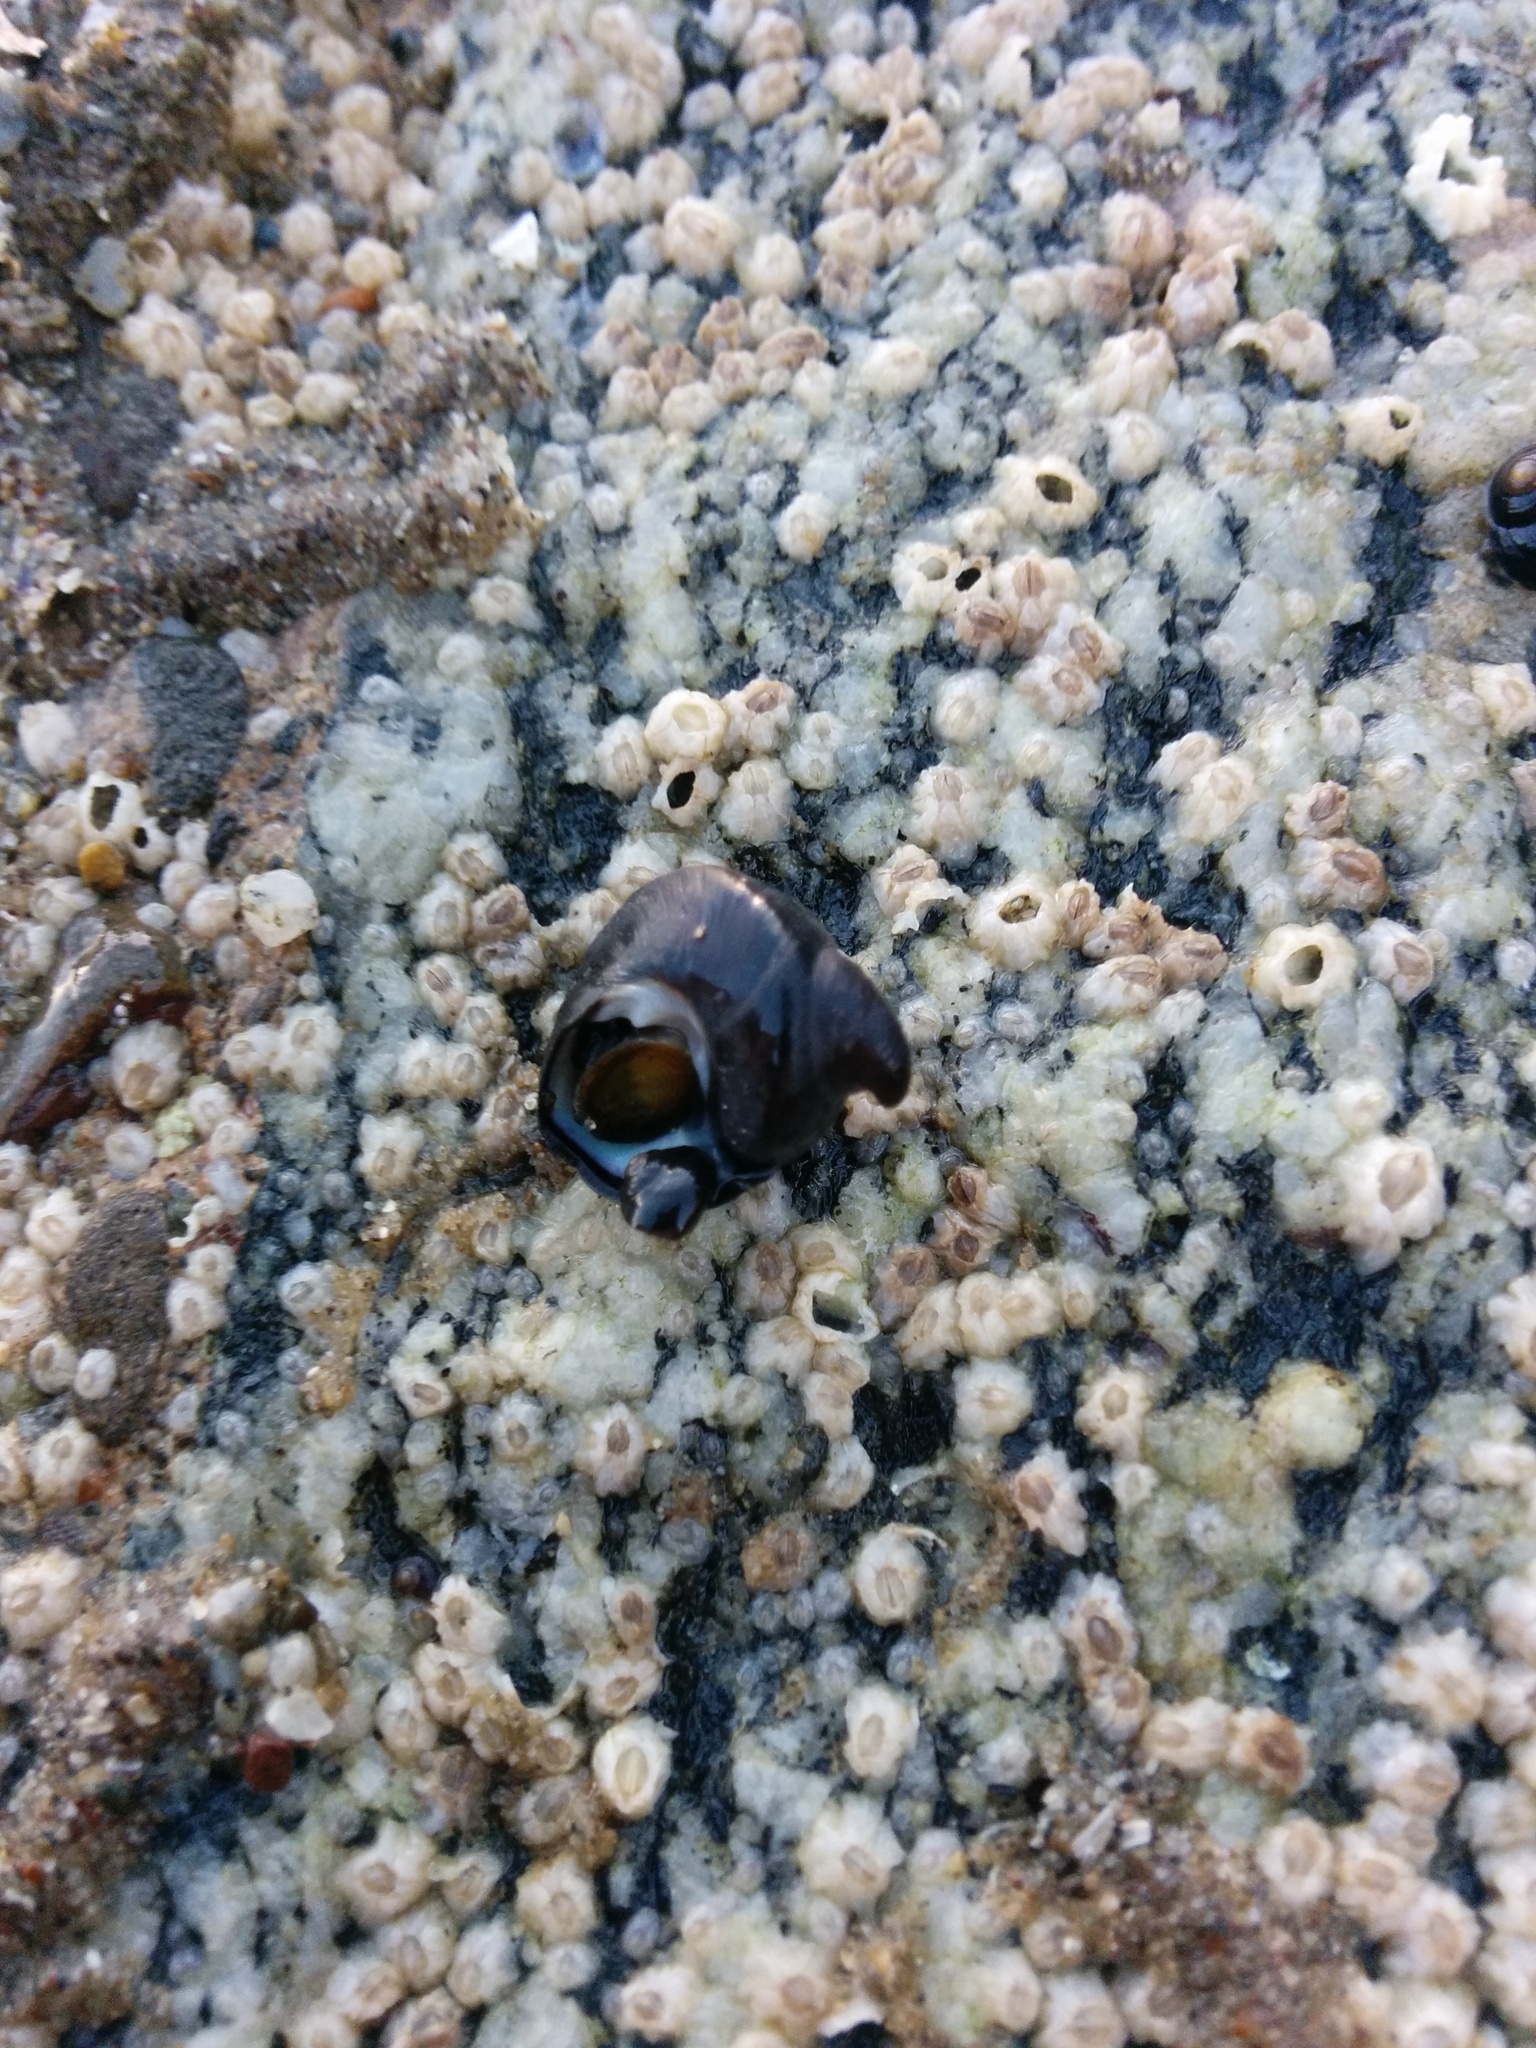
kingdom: Animalia
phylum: Mollusca
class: Gastropoda
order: Trochida
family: Tegulidae
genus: Tegula
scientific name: Tegula funebralis
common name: Black tegula
